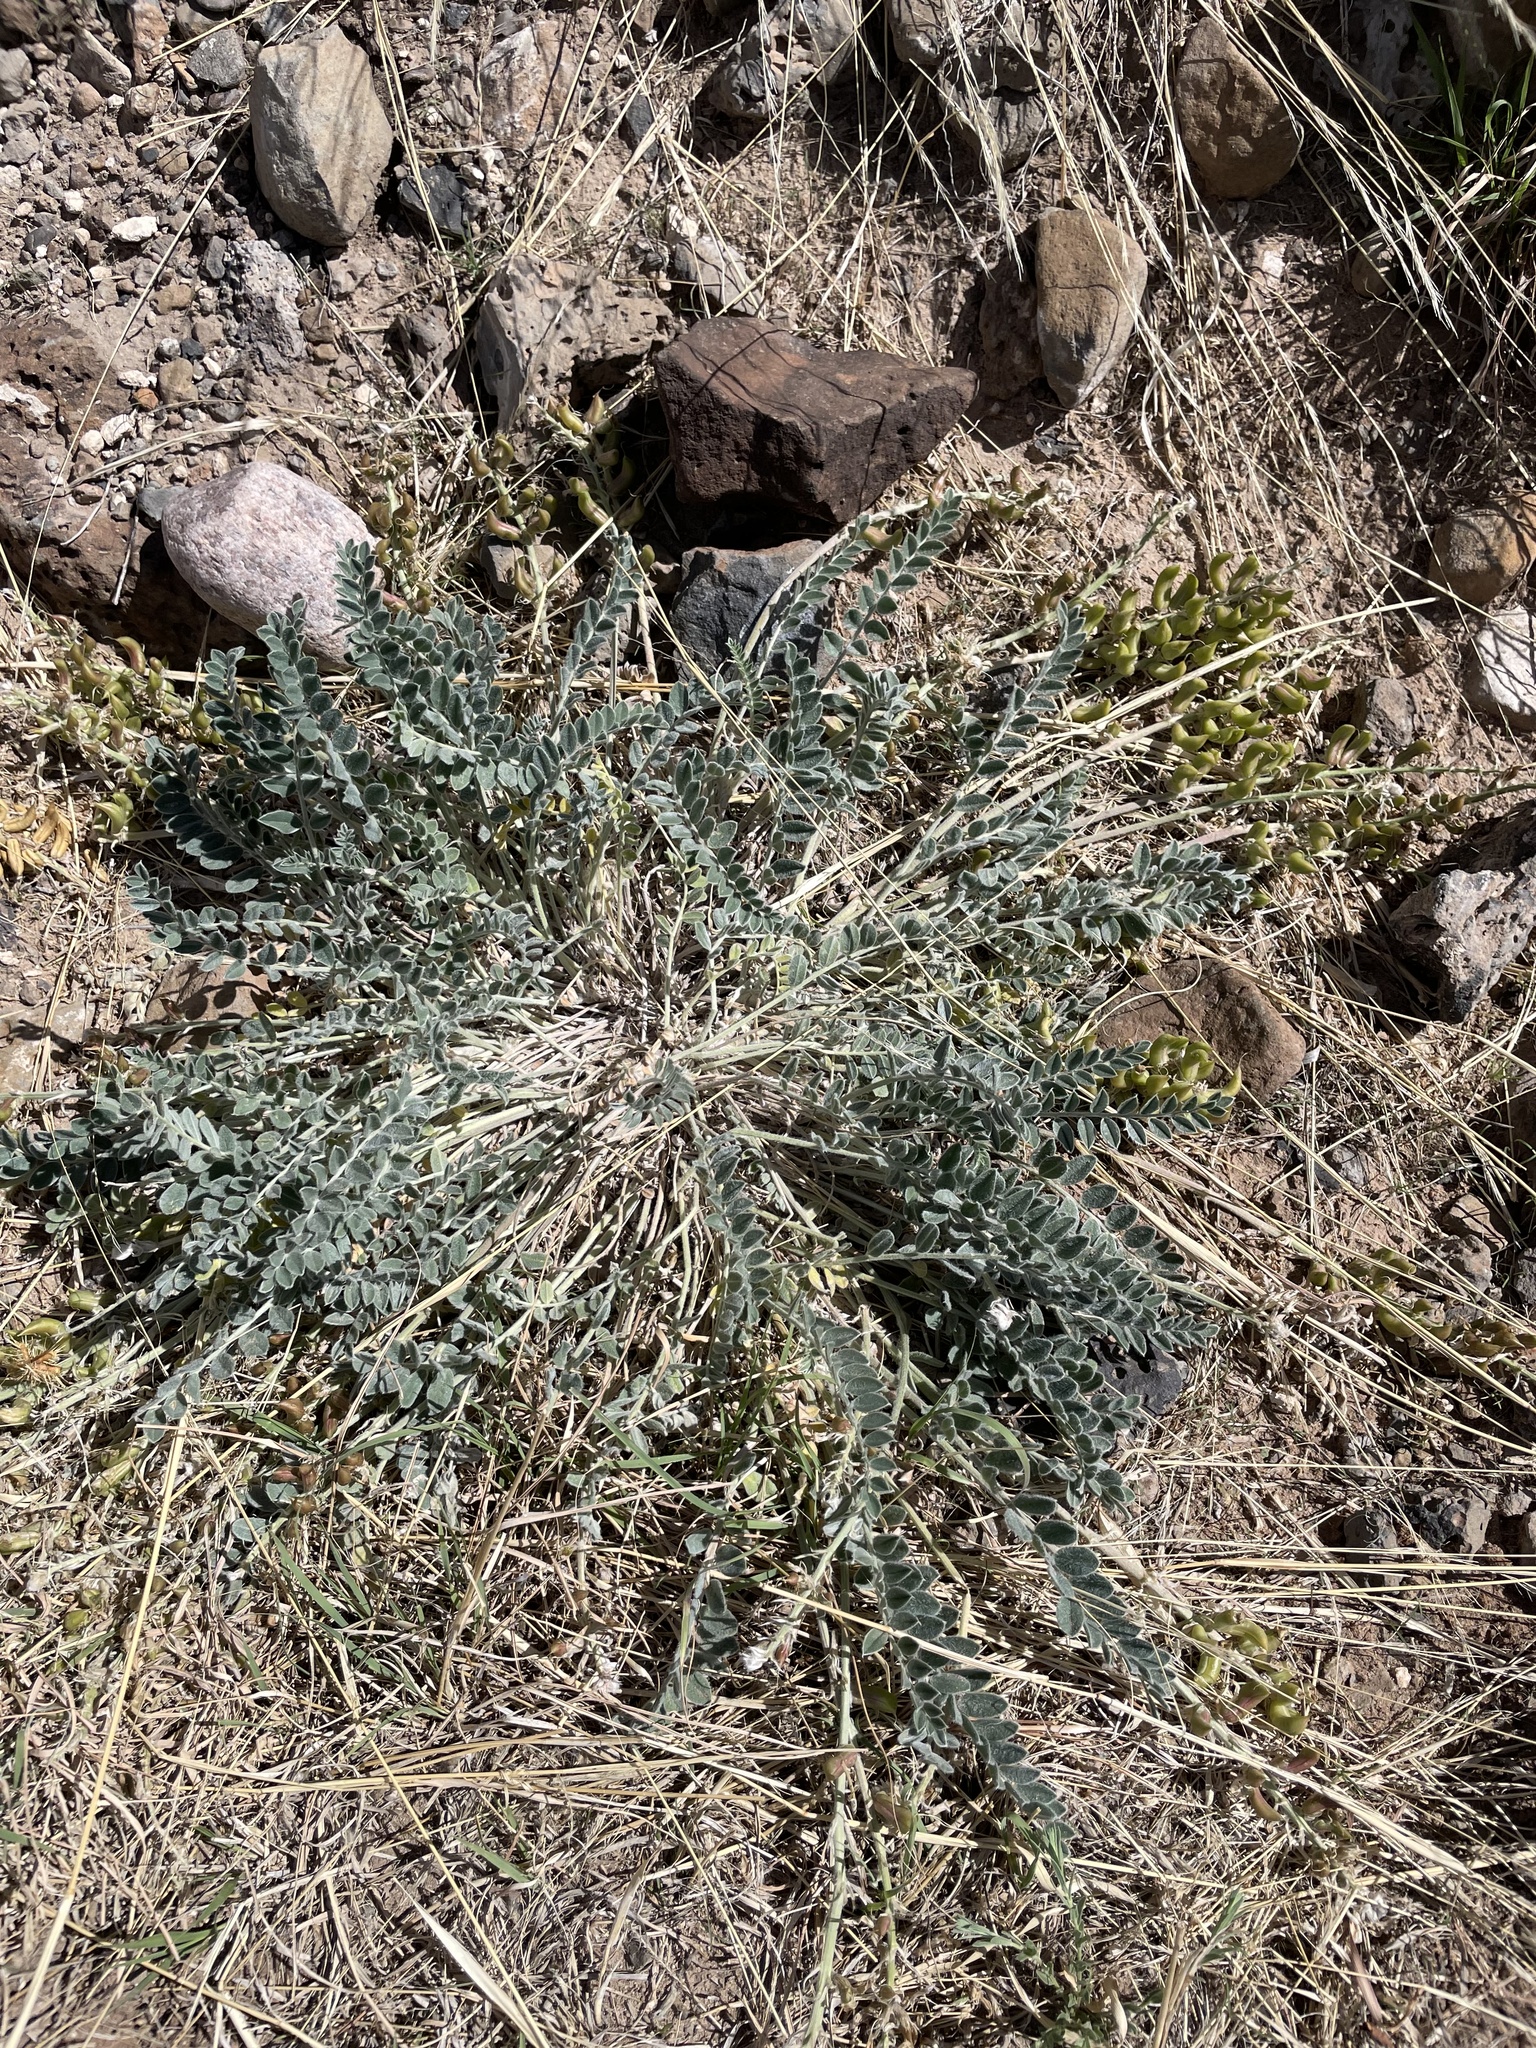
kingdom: Plantae
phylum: Tracheophyta
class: Magnoliopsida
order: Fabales
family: Fabaceae
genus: Astragalus
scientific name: Astragalus mollissimus
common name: Woolly locoweed
